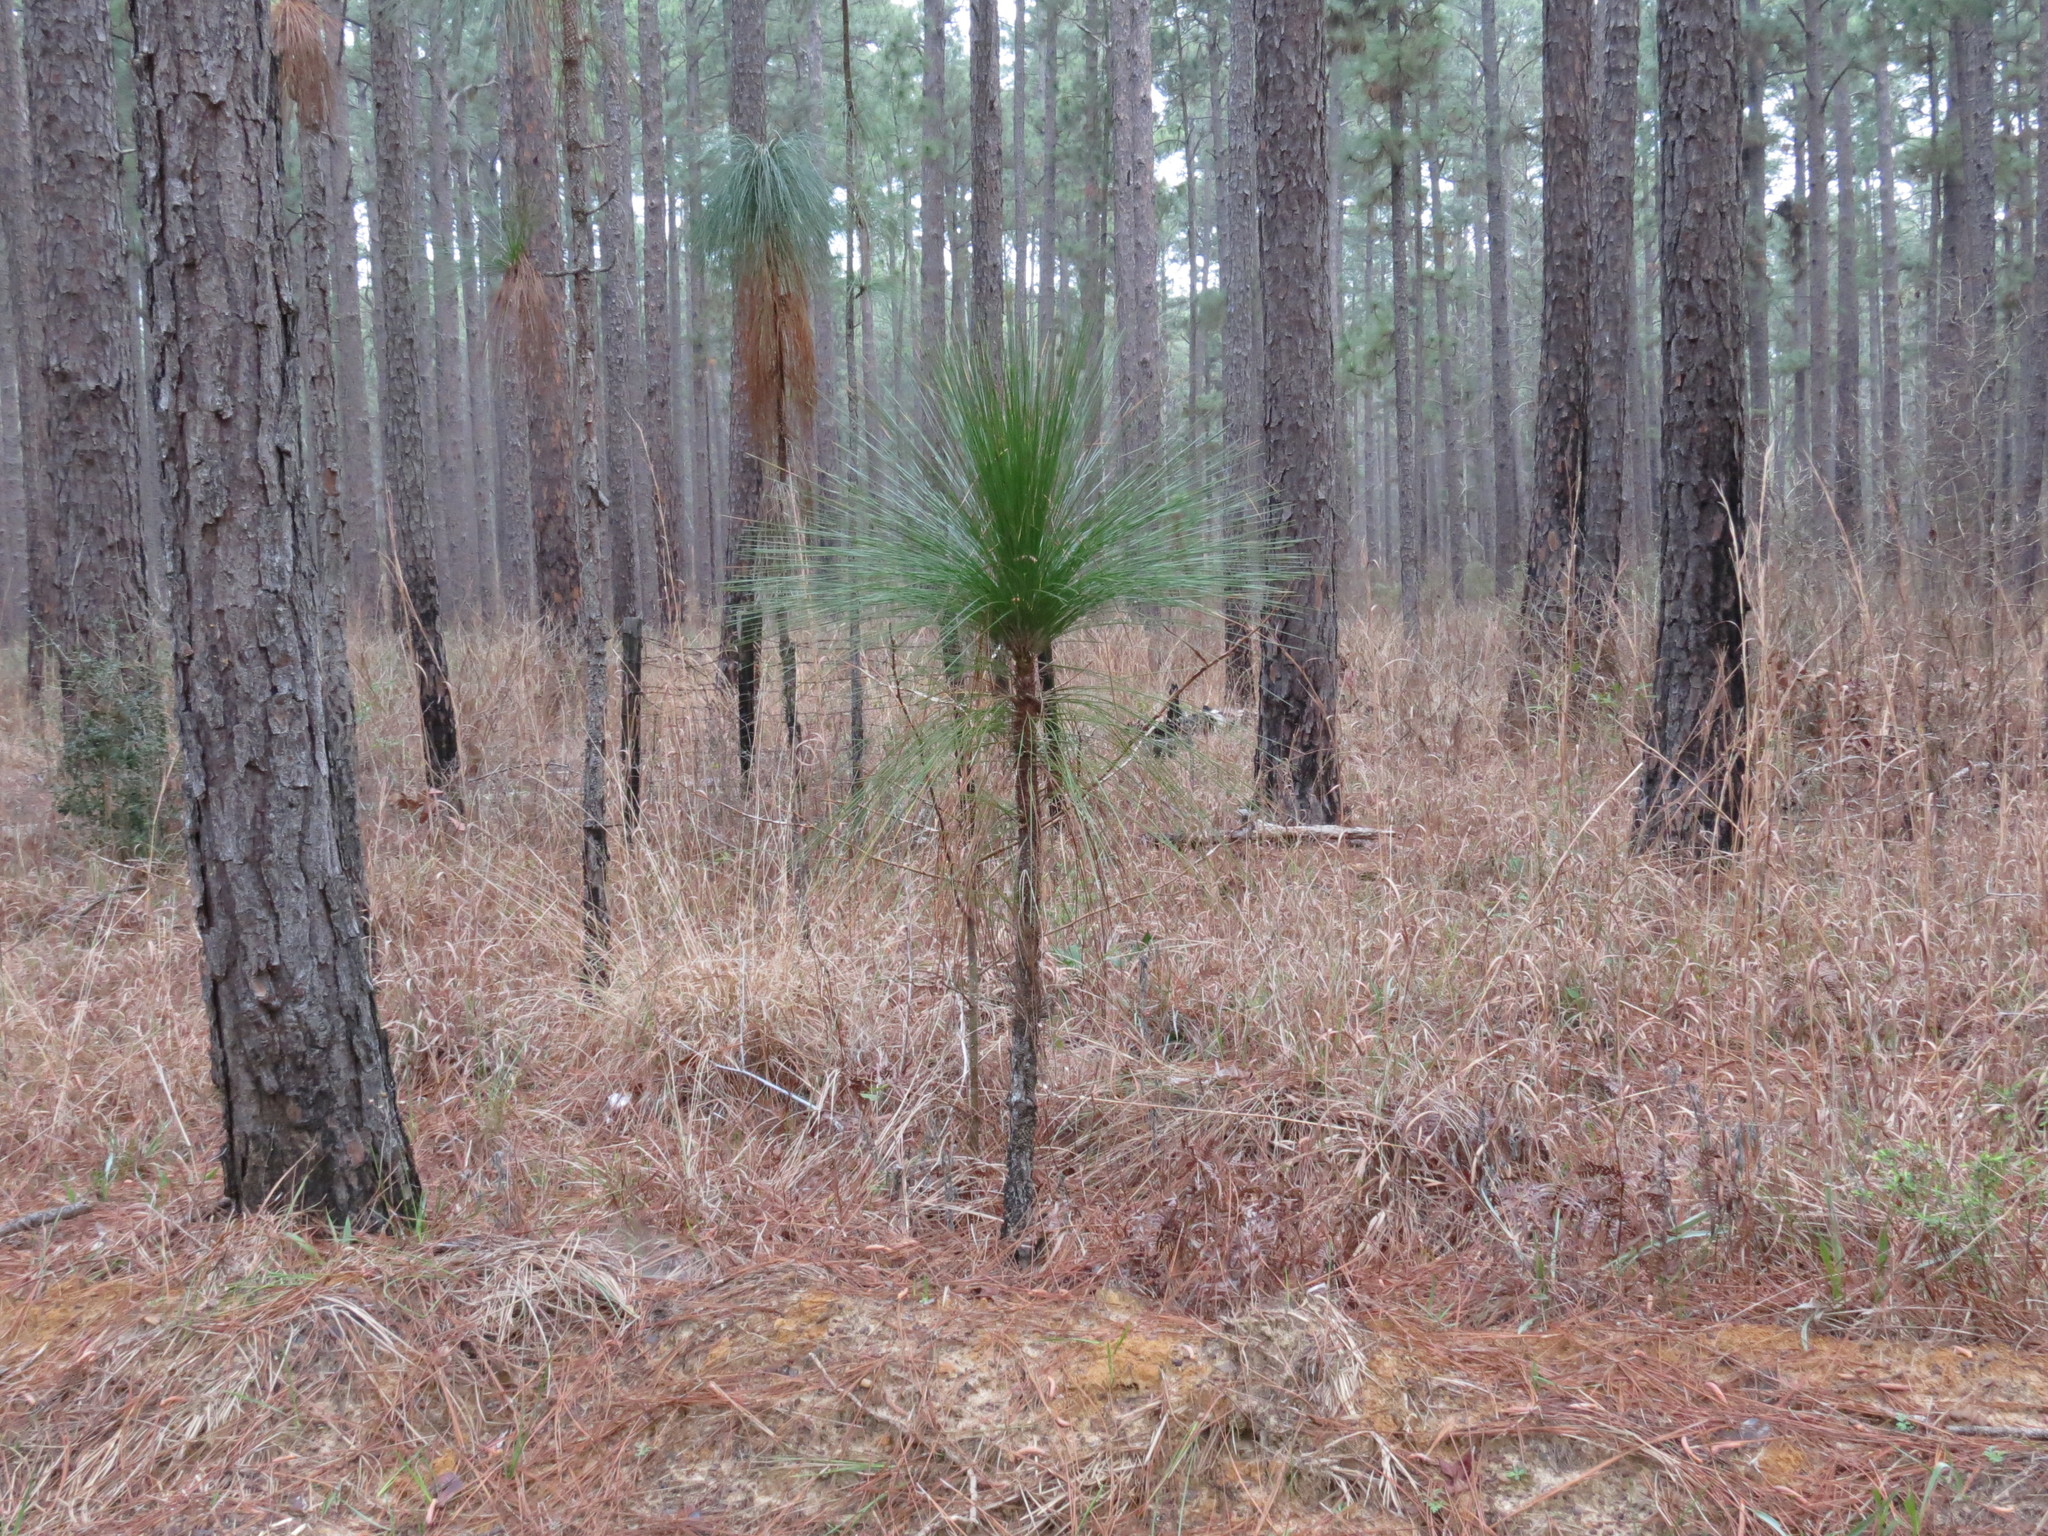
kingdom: Plantae
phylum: Tracheophyta
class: Pinopsida
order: Pinales
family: Pinaceae
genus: Pinus
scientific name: Pinus palustris
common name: Longleaf pine
